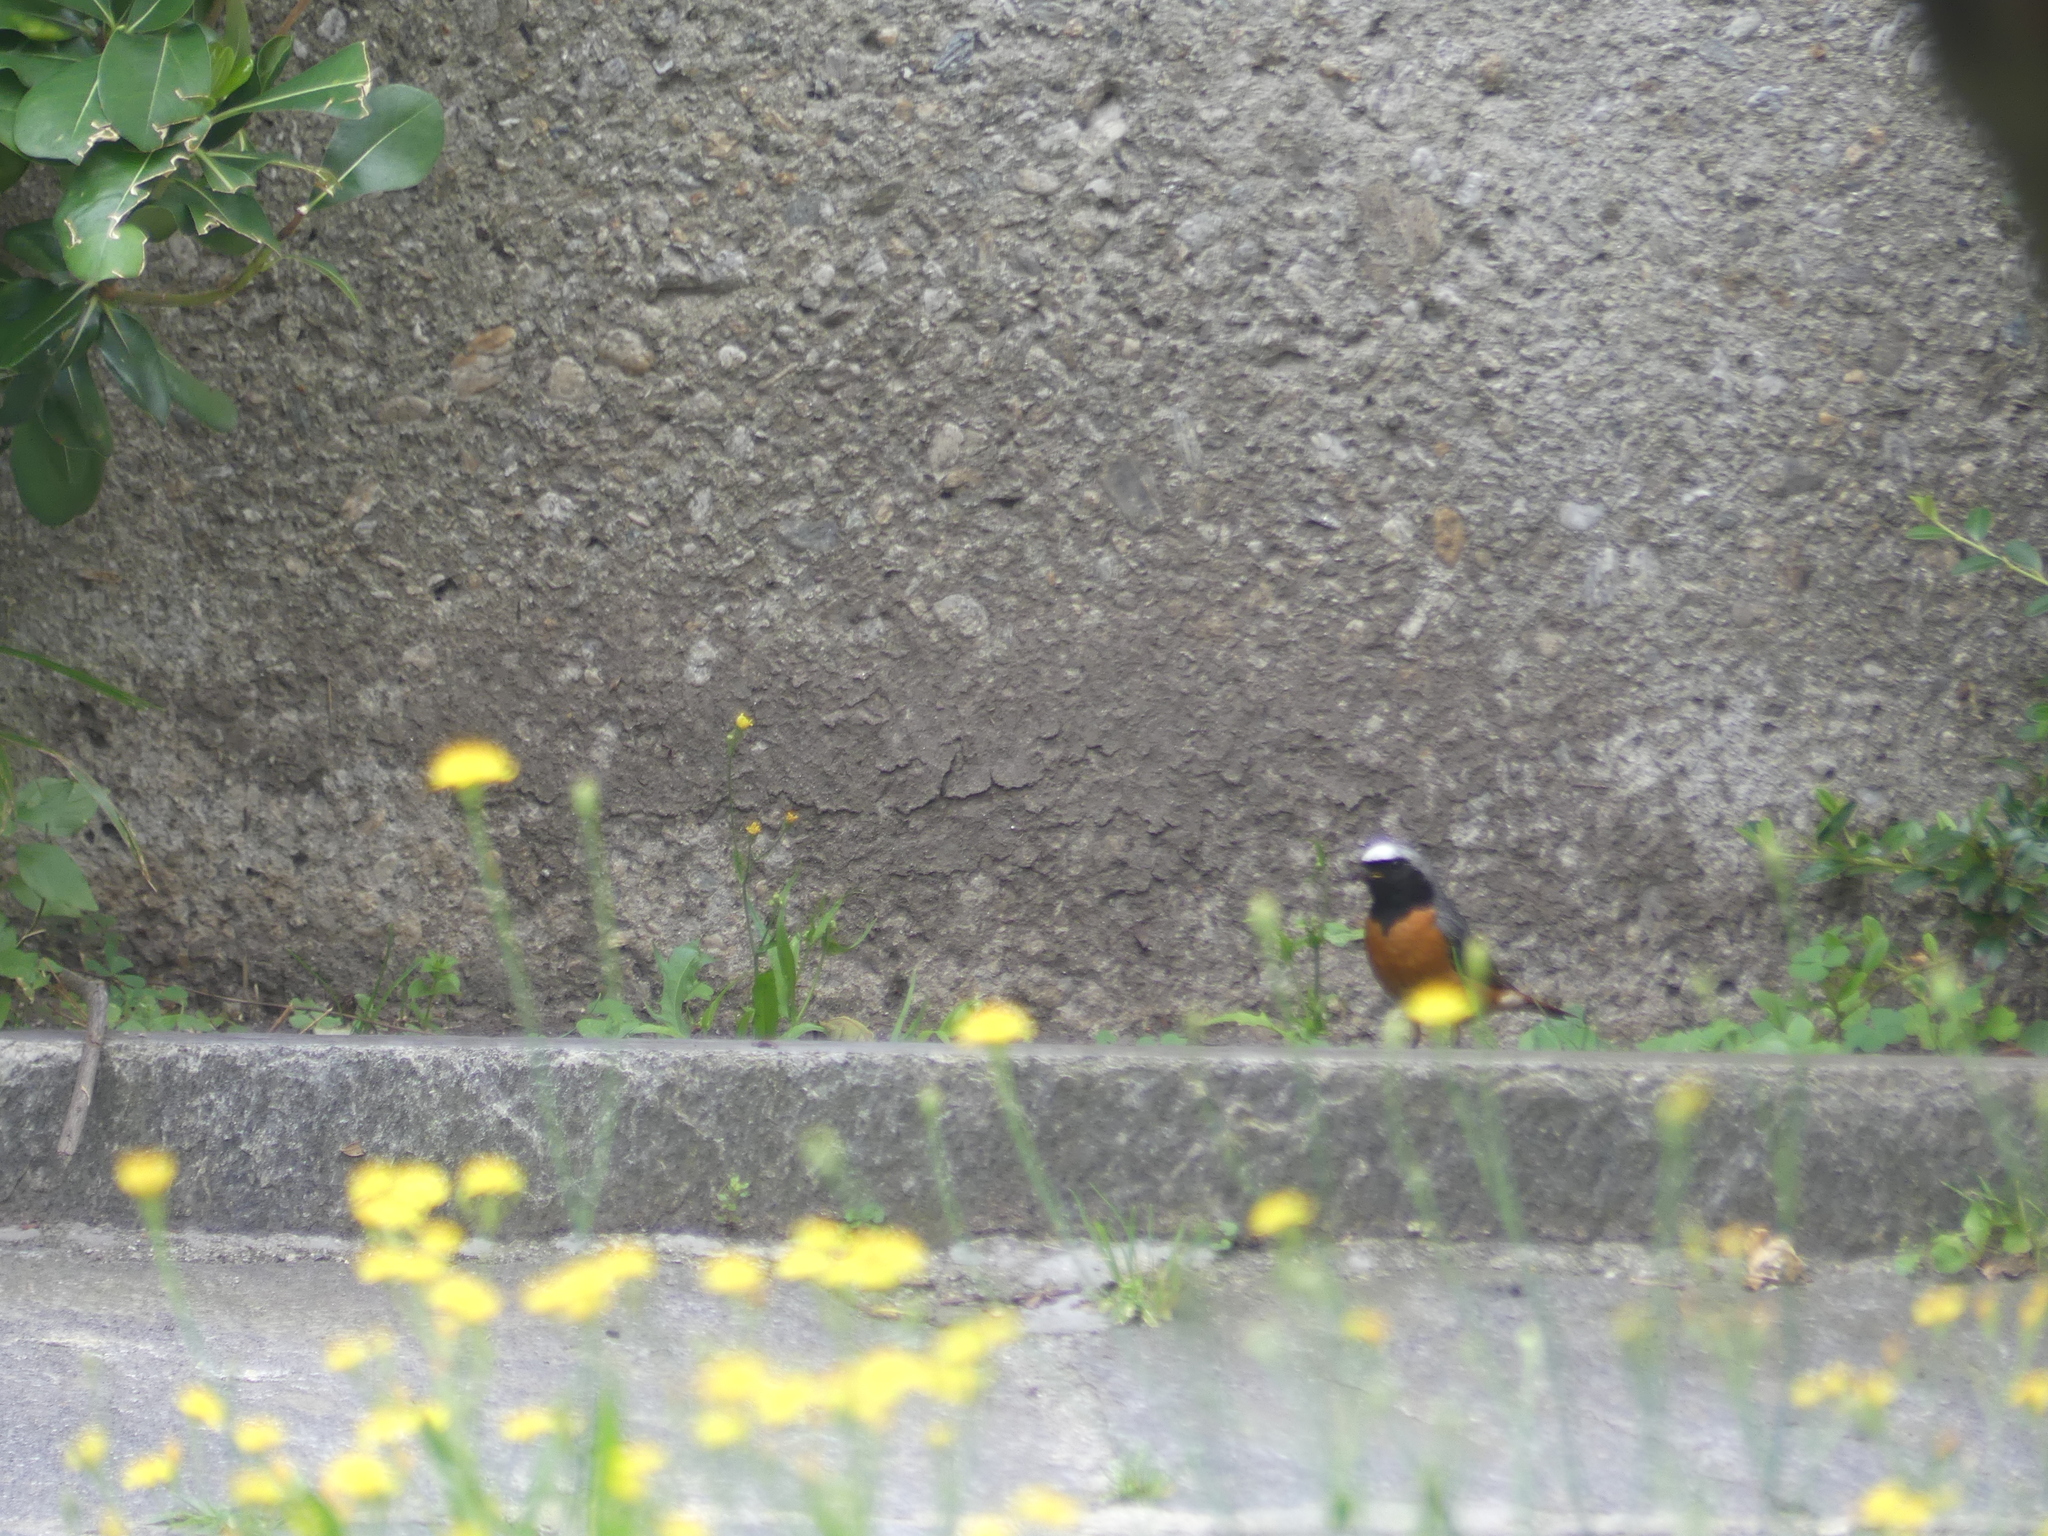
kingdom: Animalia
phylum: Chordata
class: Aves
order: Passeriformes
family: Muscicapidae
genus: Phoenicurus
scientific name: Phoenicurus phoenicurus
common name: Common redstart
